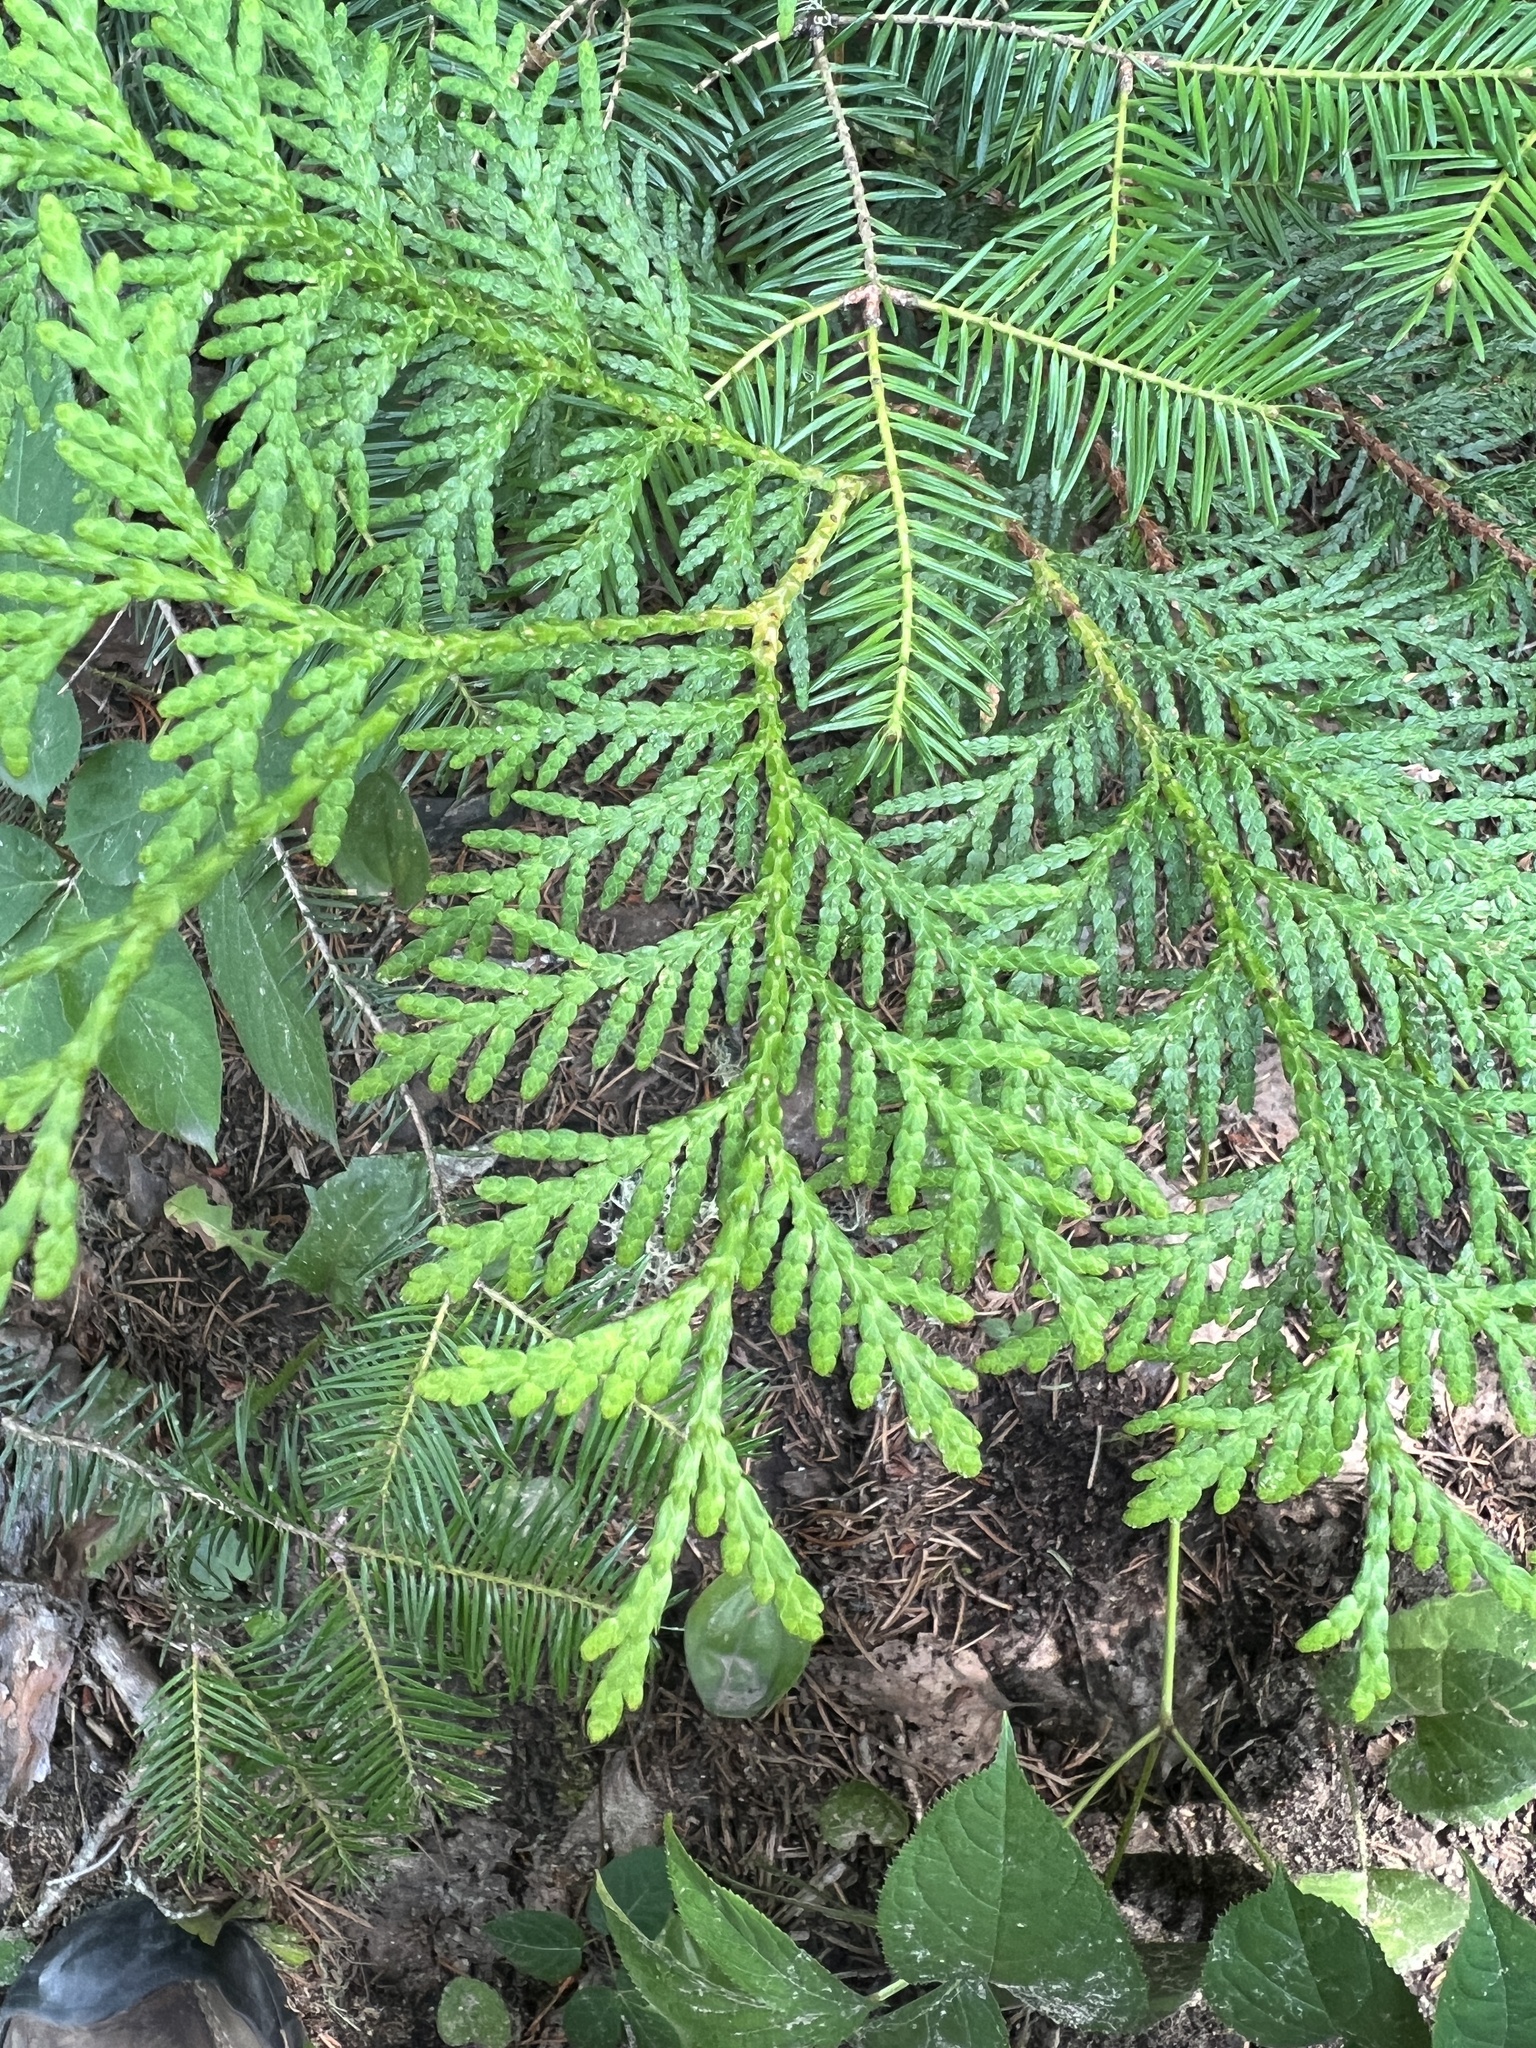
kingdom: Plantae
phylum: Tracheophyta
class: Pinopsida
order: Pinales
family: Cupressaceae
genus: Thuja
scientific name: Thuja occidentalis
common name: Northern white-cedar
